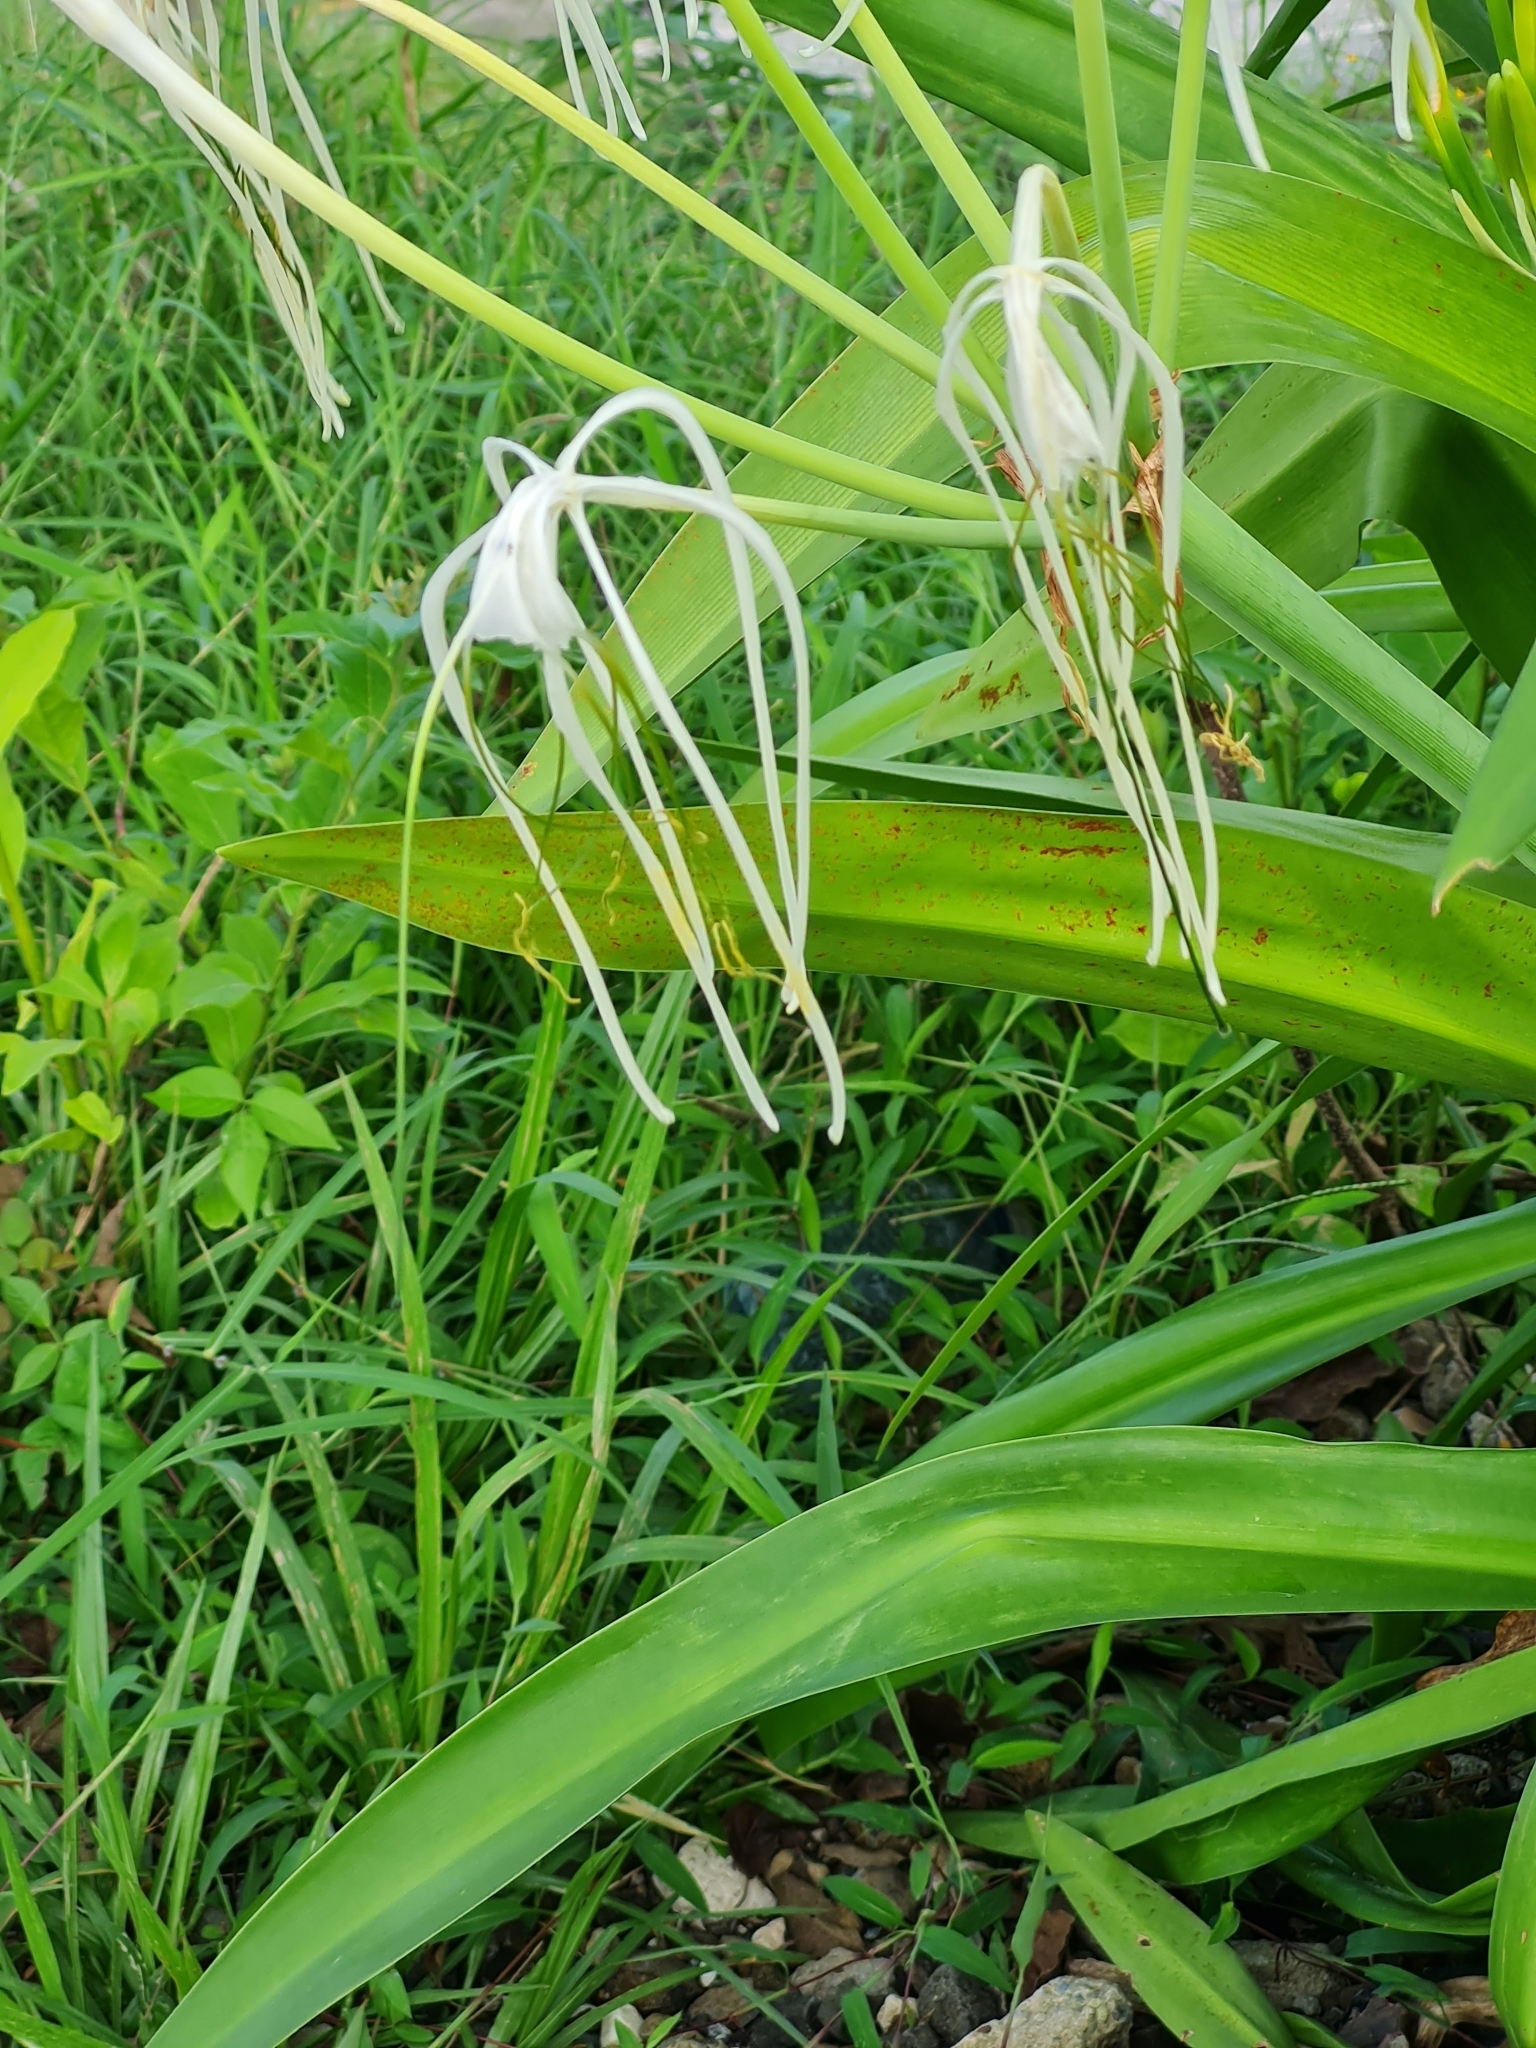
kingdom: Plantae
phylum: Tracheophyta
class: Liliopsida
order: Asparagales
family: Amaryllidaceae
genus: Hymenocallis
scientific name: Hymenocallis littoralis
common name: Beach spiderlily
